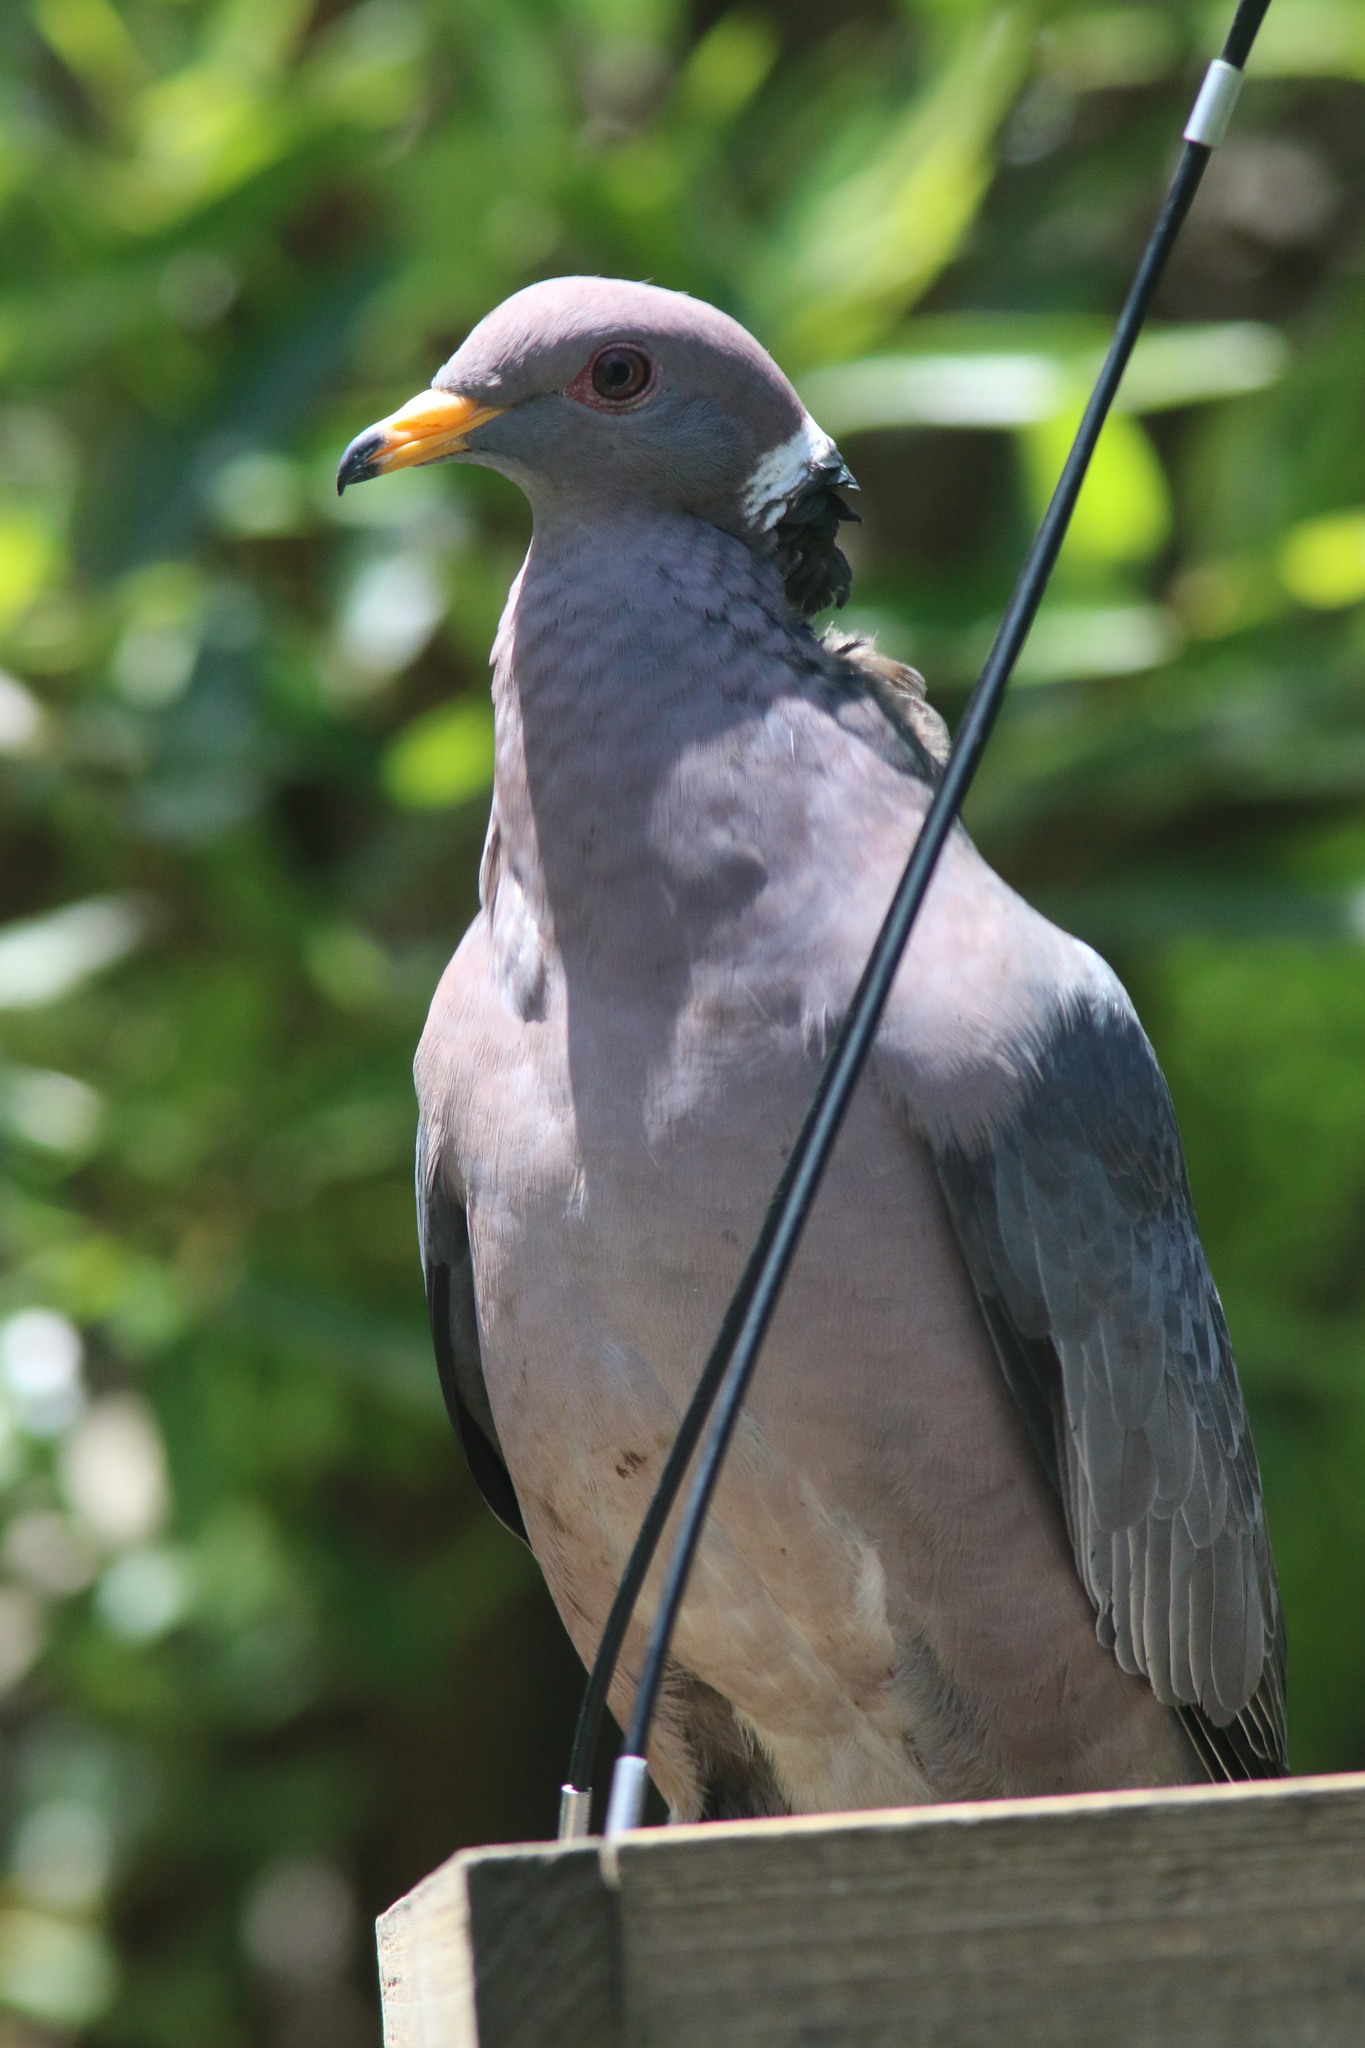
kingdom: Animalia
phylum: Chordata
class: Aves
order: Columbiformes
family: Columbidae
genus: Patagioenas
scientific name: Patagioenas fasciata
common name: Band-tailed pigeon
